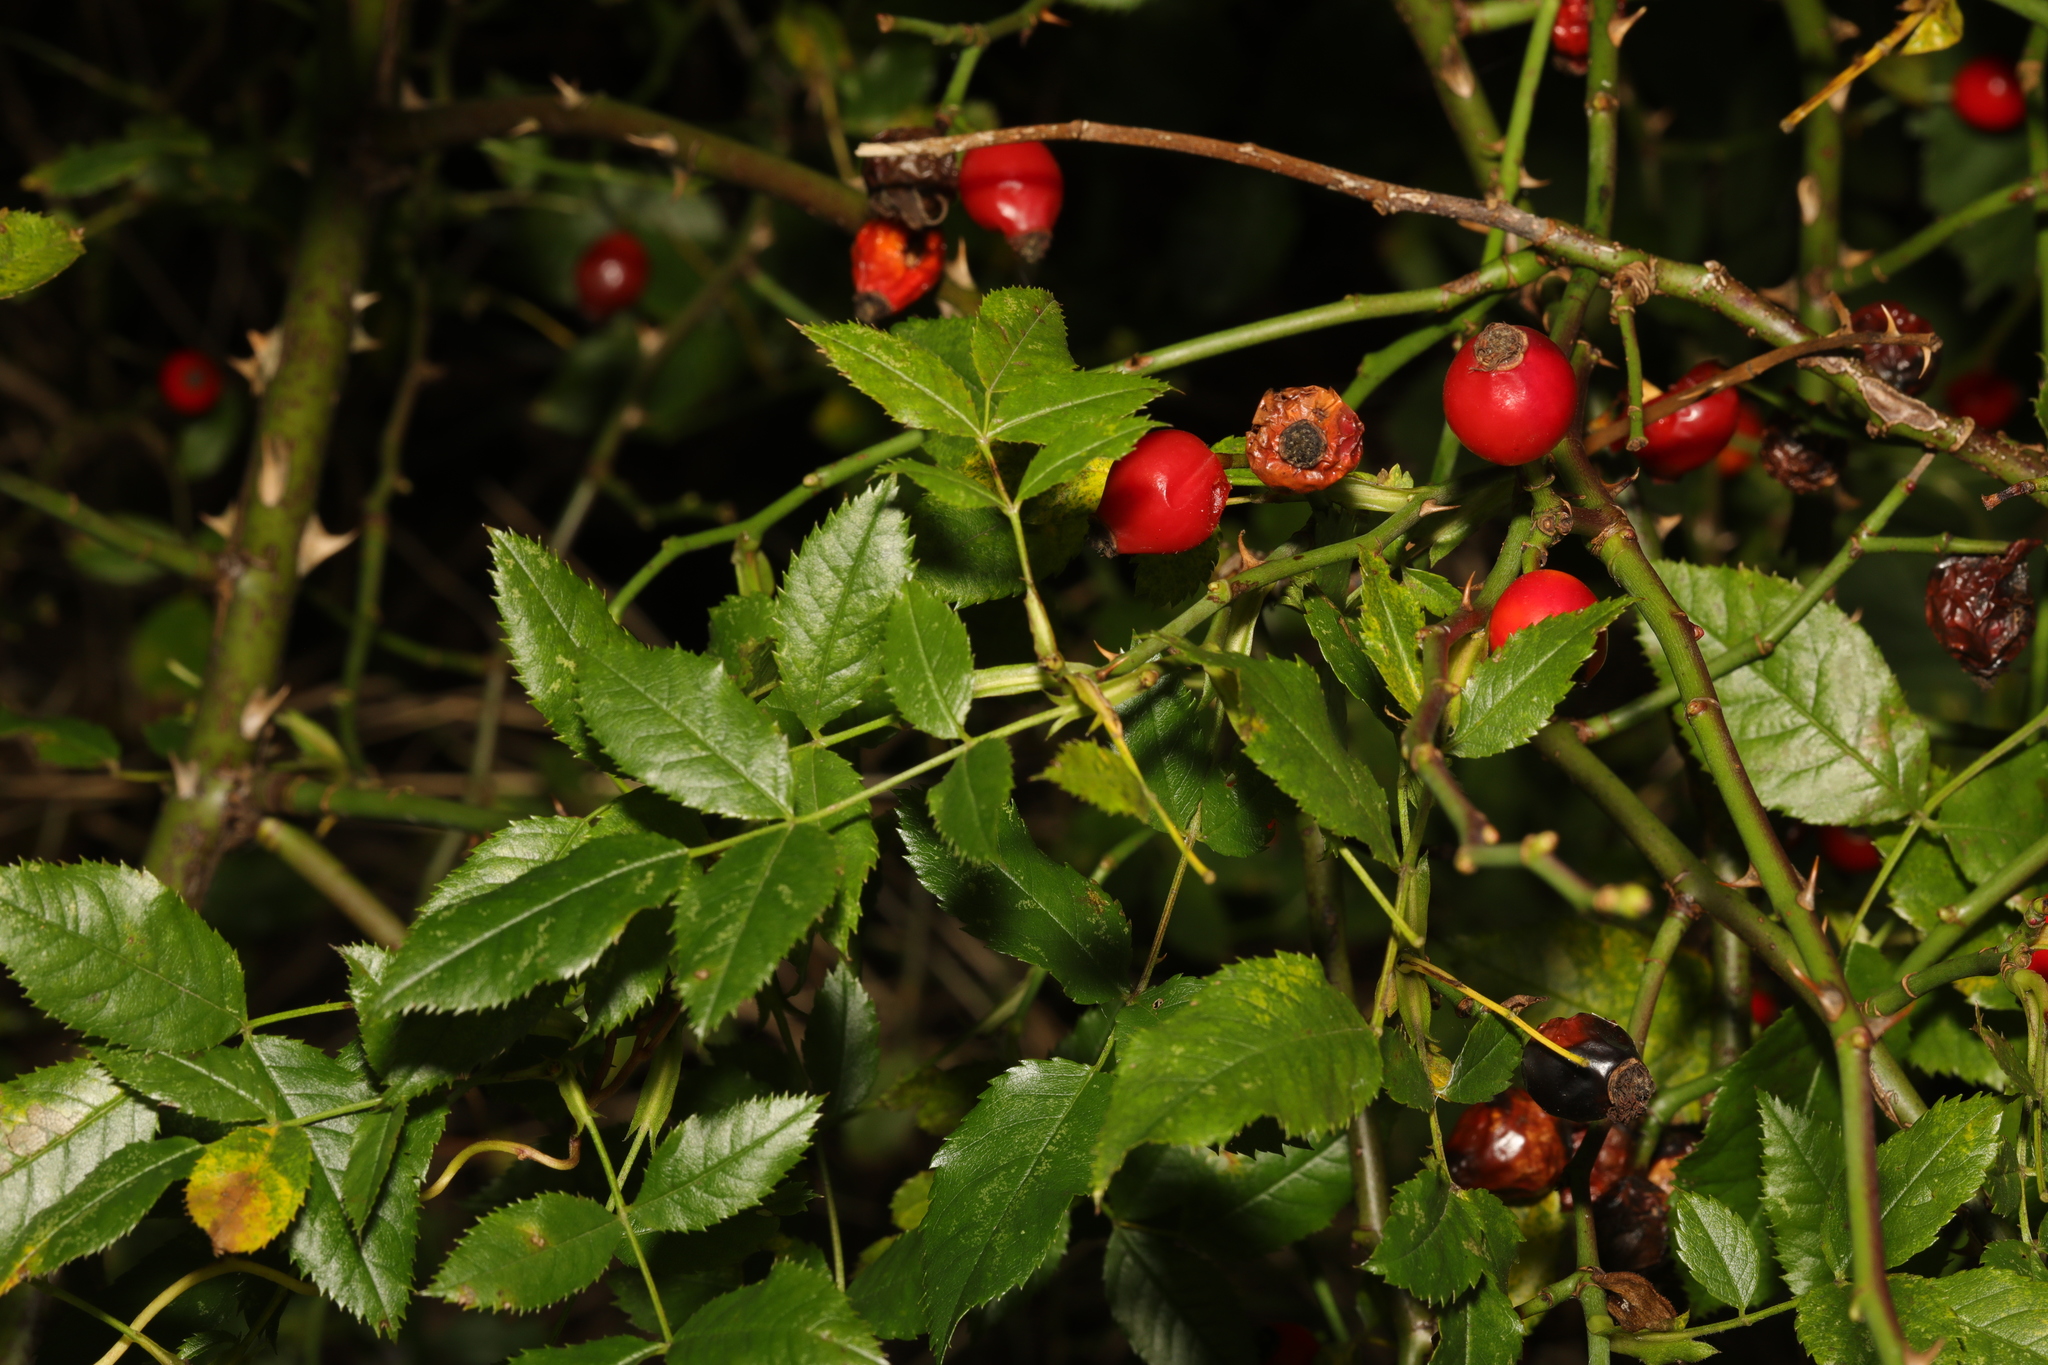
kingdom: Plantae
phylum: Tracheophyta
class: Magnoliopsida
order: Rosales
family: Rosaceae
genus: Rosa
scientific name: Rosa canina
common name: Dog rose
